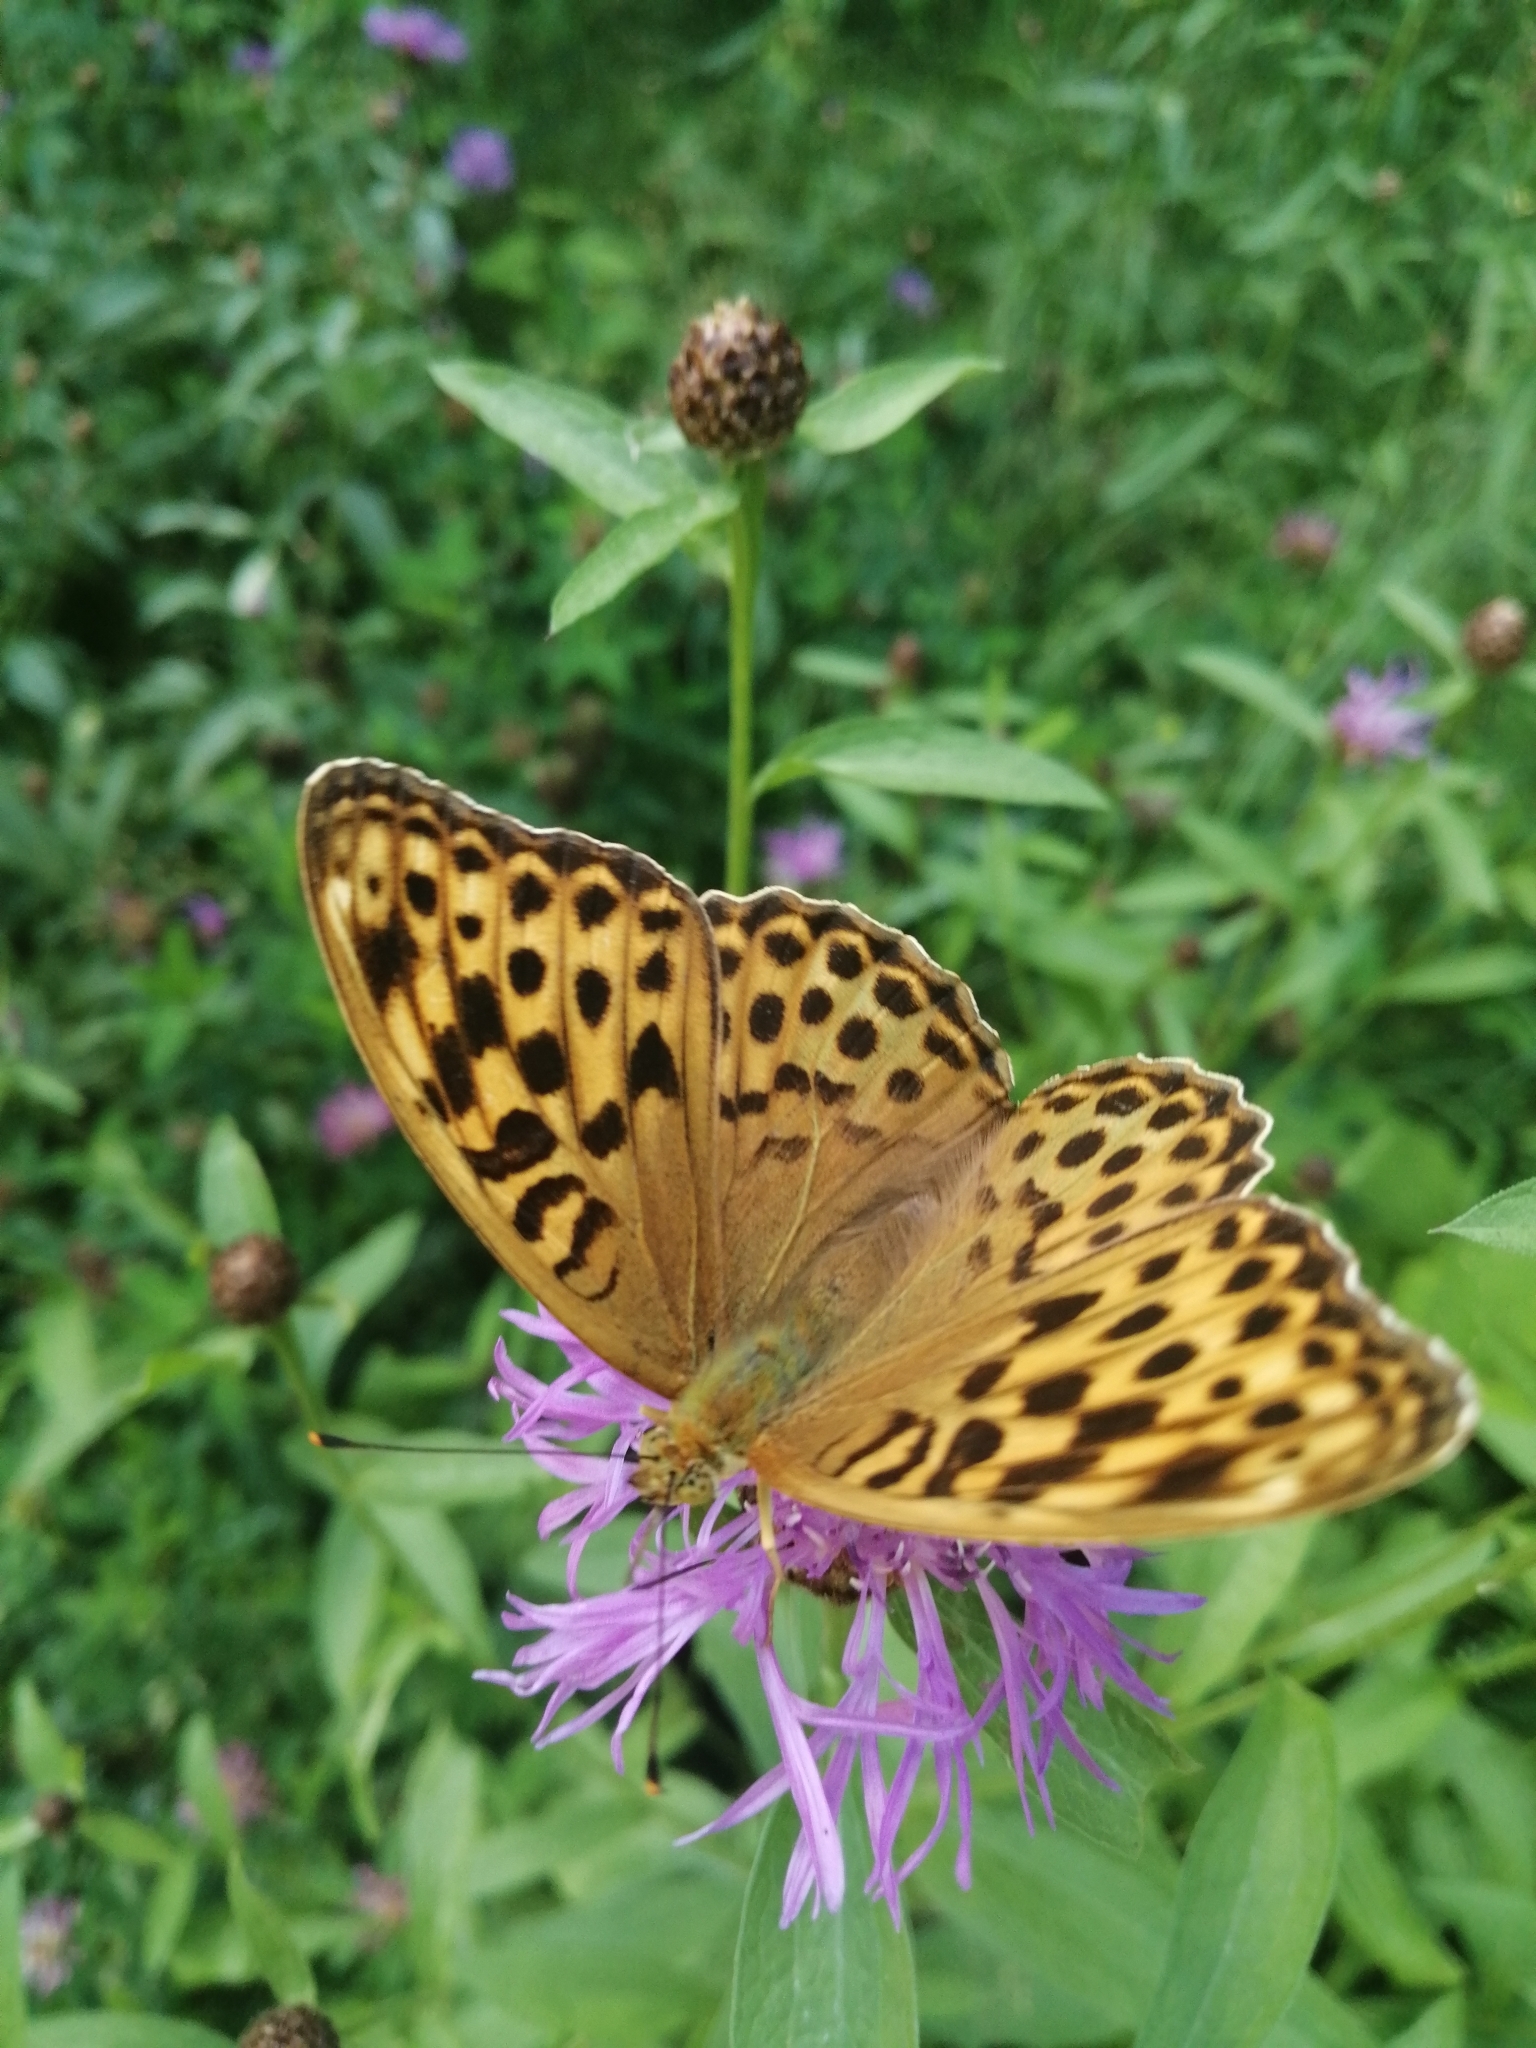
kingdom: Animalia
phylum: Arthropoda
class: Insecta
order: Lepidoptera
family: Nymphalidae
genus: Argynnis
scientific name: Argynnis paphia
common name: Silver-washed fritillary
